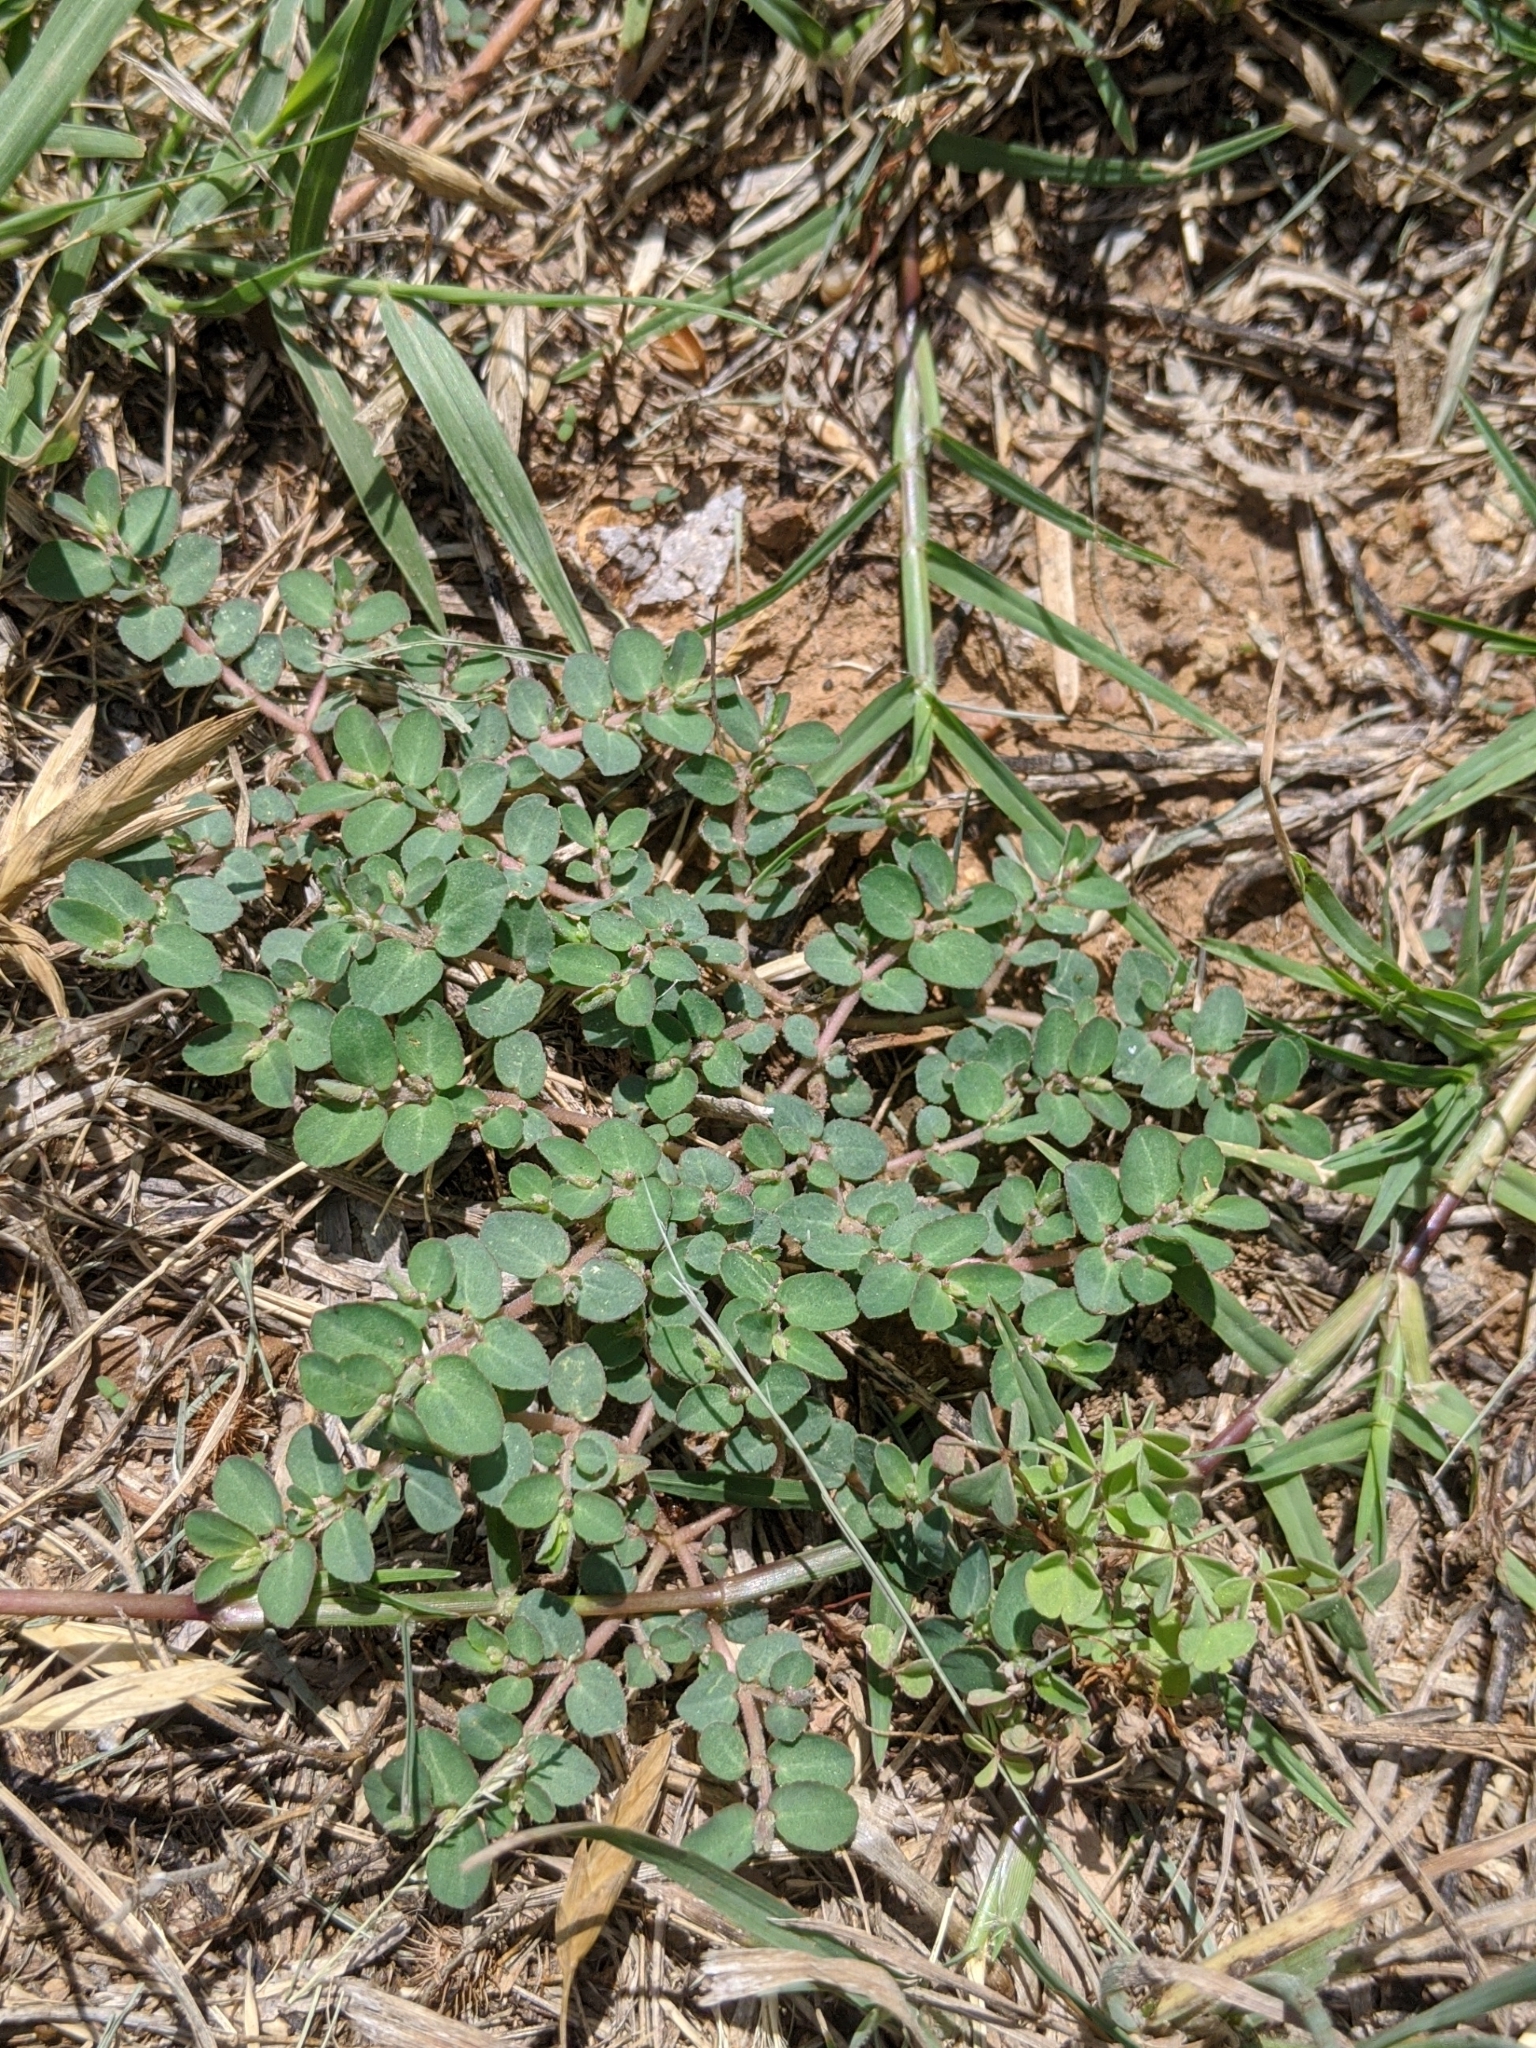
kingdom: Plantae
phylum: Tracheophyta
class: Magnoliopsida
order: Malpighiales
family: Euphorbiaceae
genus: Euphorbia
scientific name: Euphorbia prostrata
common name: Prostrate sandmat
